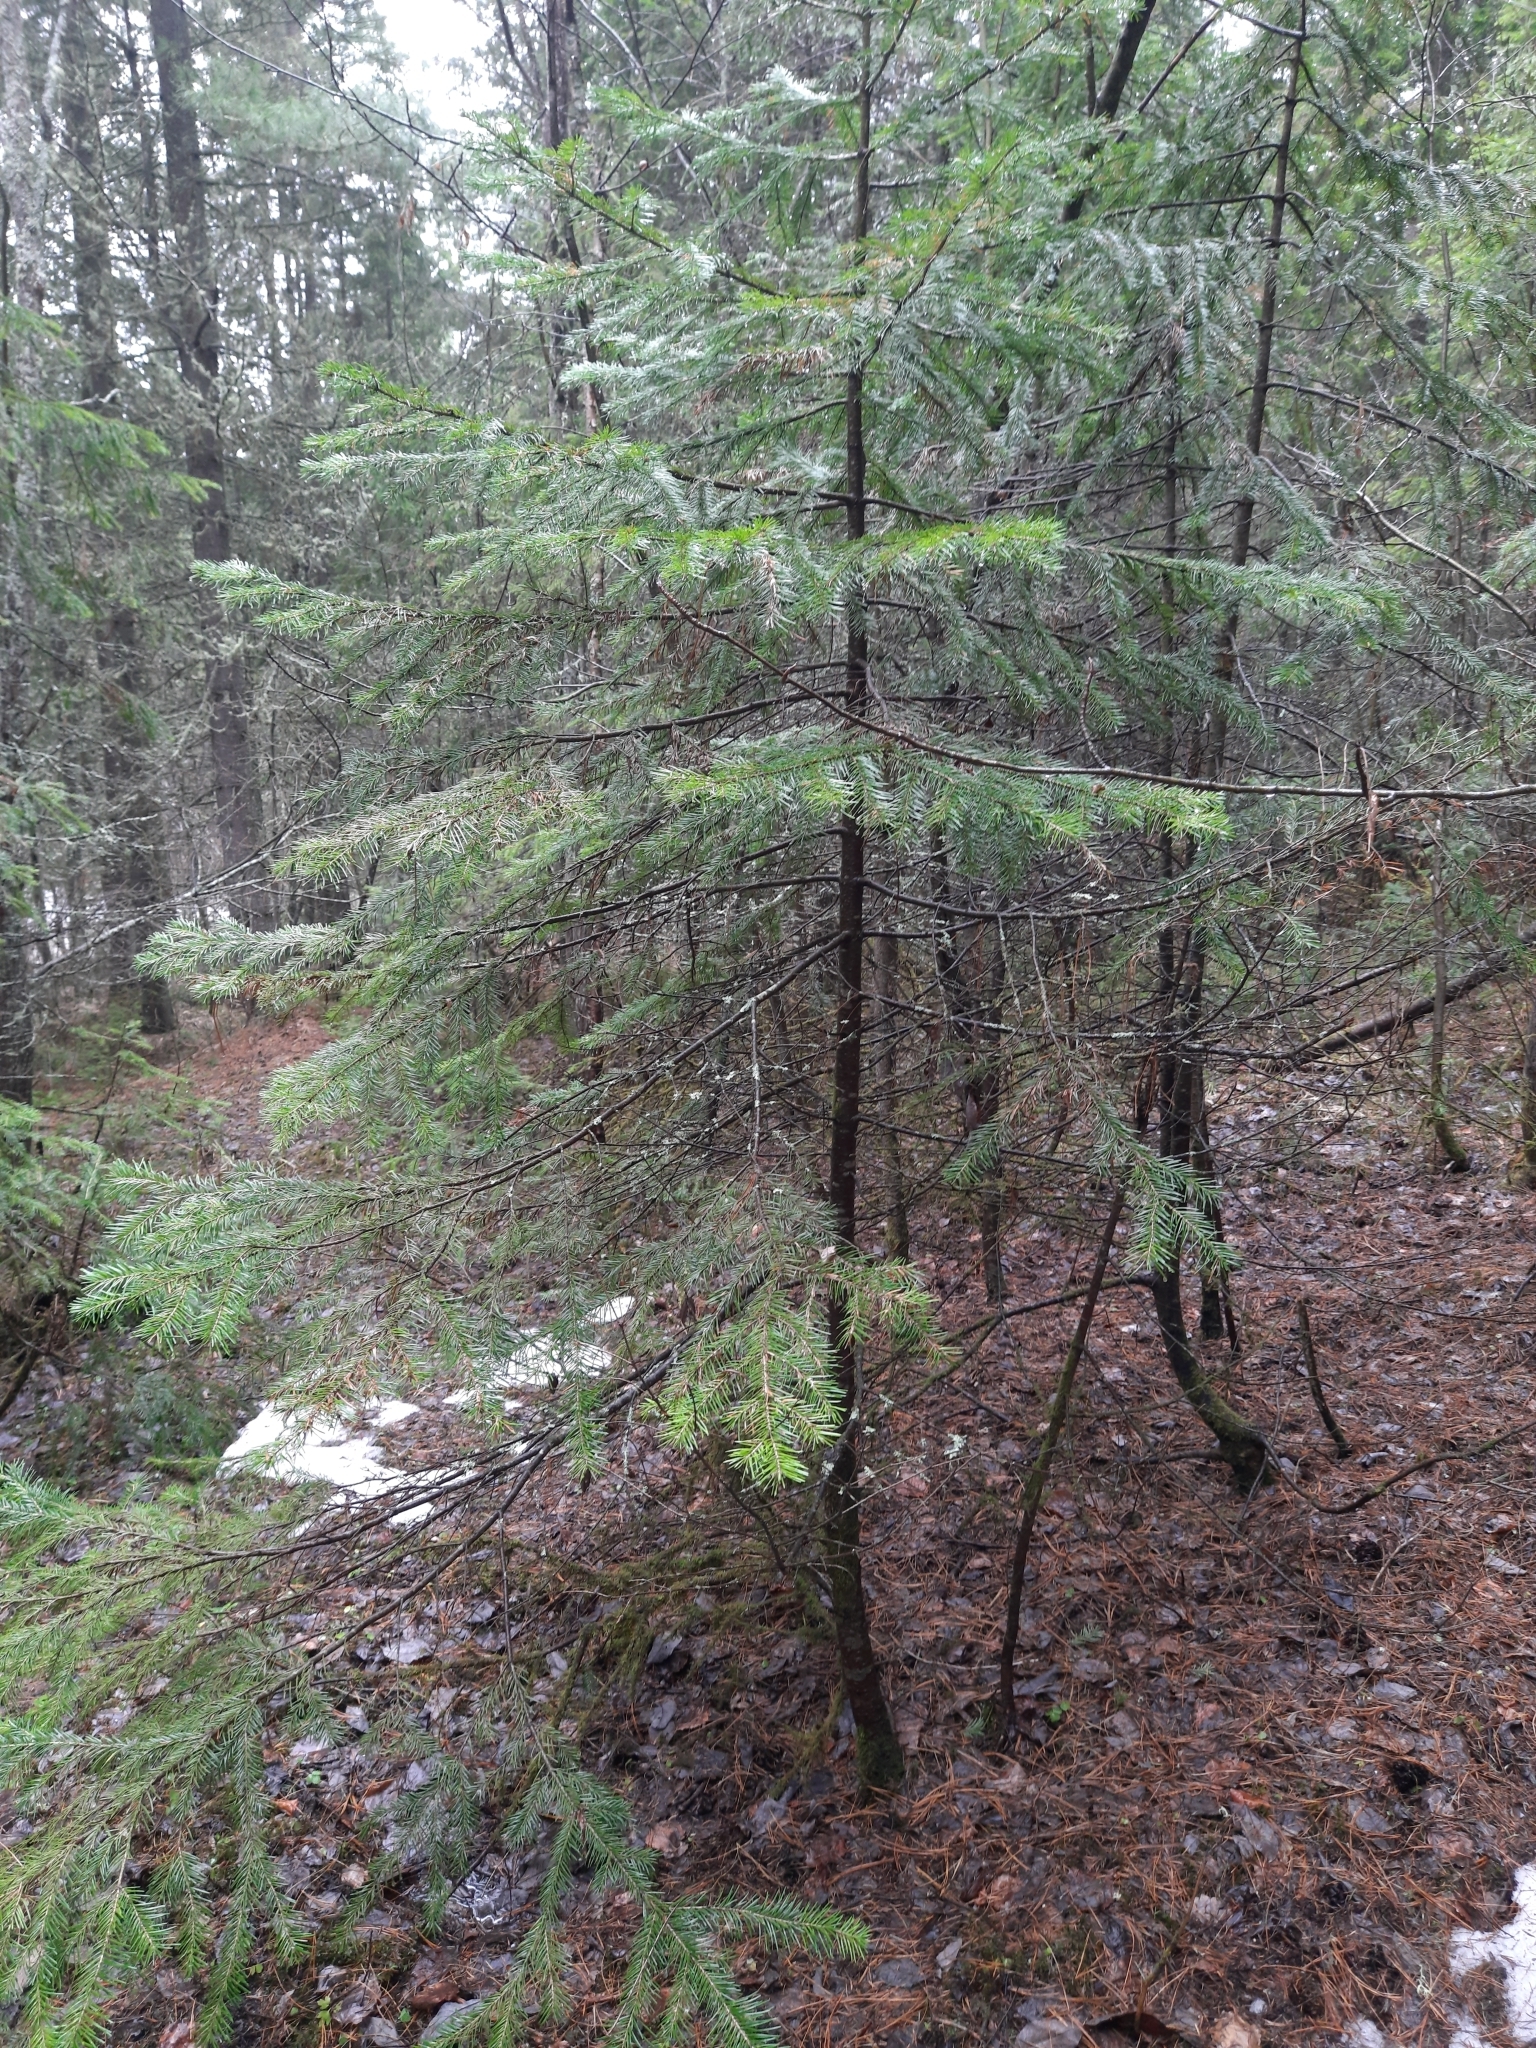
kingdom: Plantae
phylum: Tracheophyta
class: Pinopsida
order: Pinales
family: Pinaceae
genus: Abies
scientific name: Abies sibirica
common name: Siberian fir
